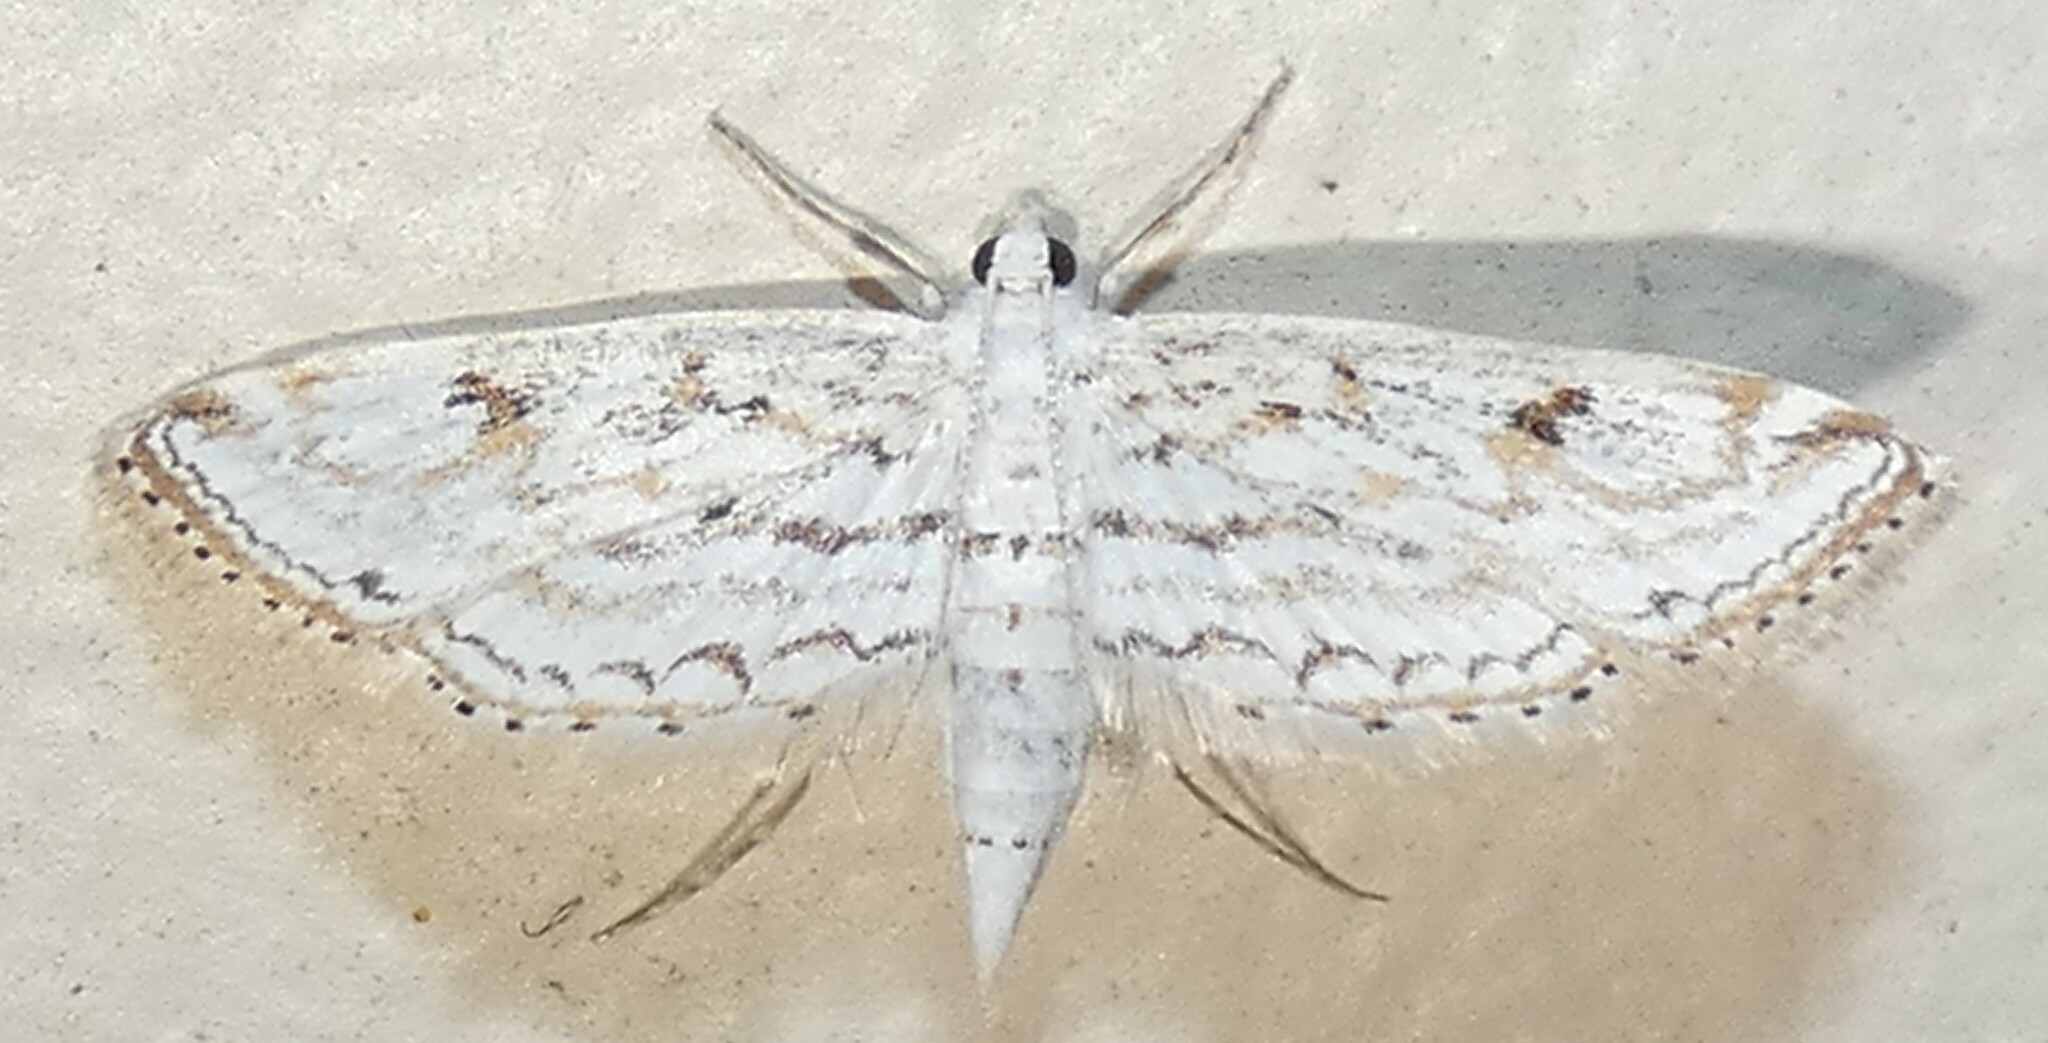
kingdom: Animalia
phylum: Arthropoda
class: Insecta
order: Lepidoptera
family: Crambidae
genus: Parapoynx
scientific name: Parapoynx allionealis
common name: Bladderwort casemaker
